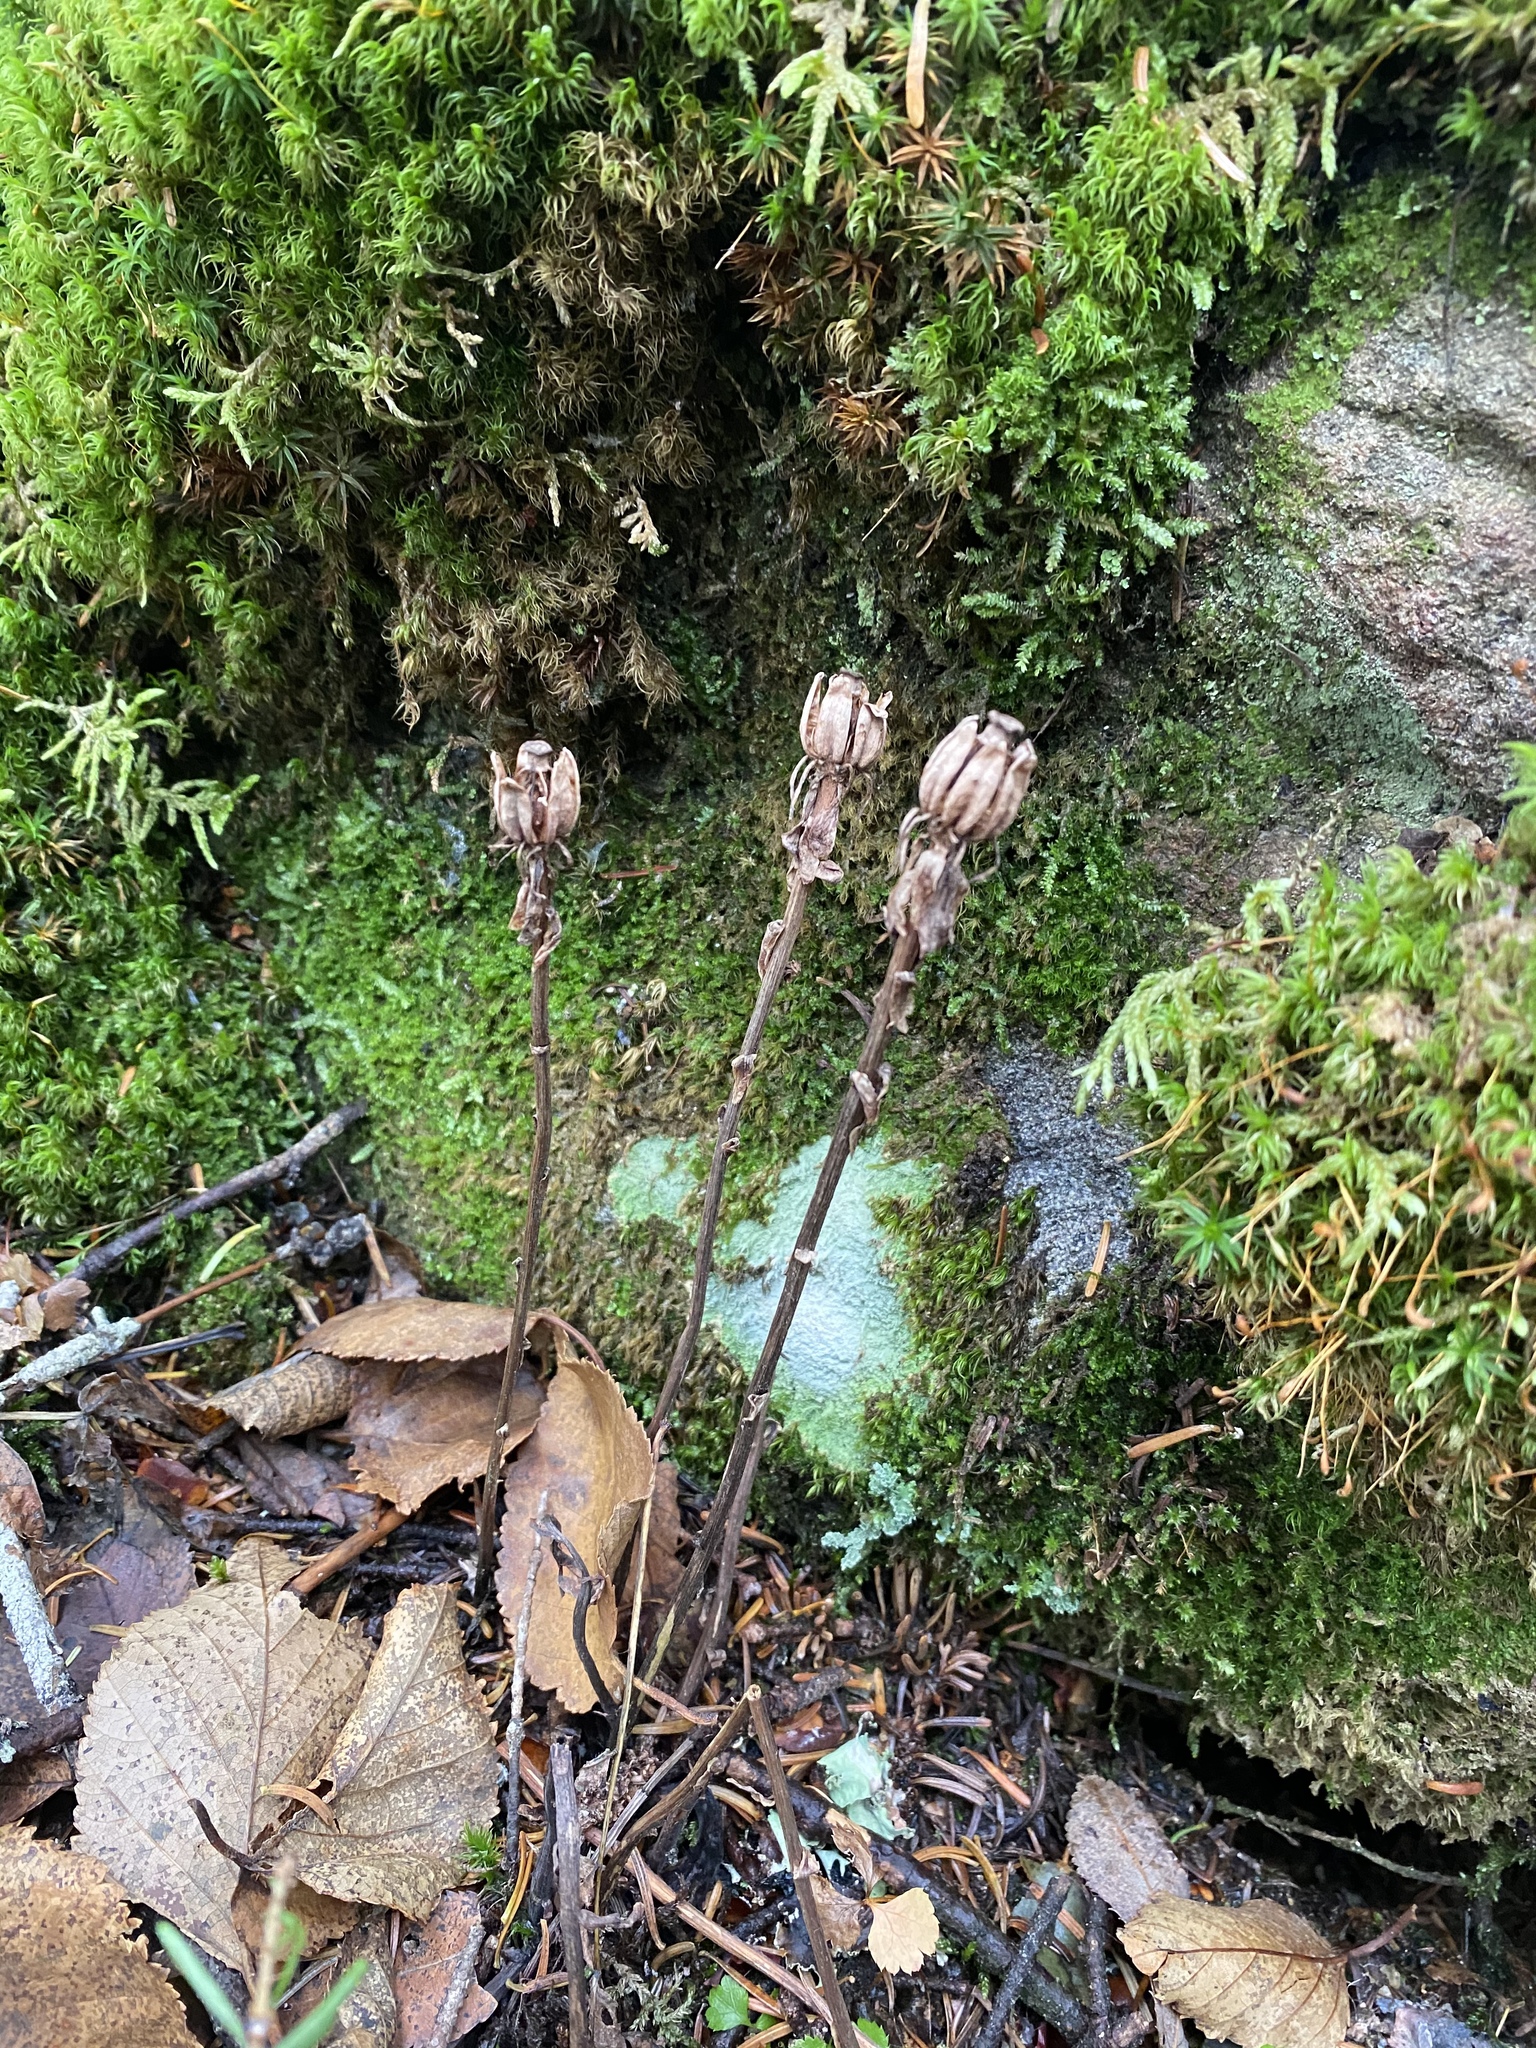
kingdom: Plantae
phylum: Tracheophyta
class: Magnoliopsida
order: Ericales
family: Ericaceae
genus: Monotropa
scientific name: Monotropa uniflora
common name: Convulsion root
